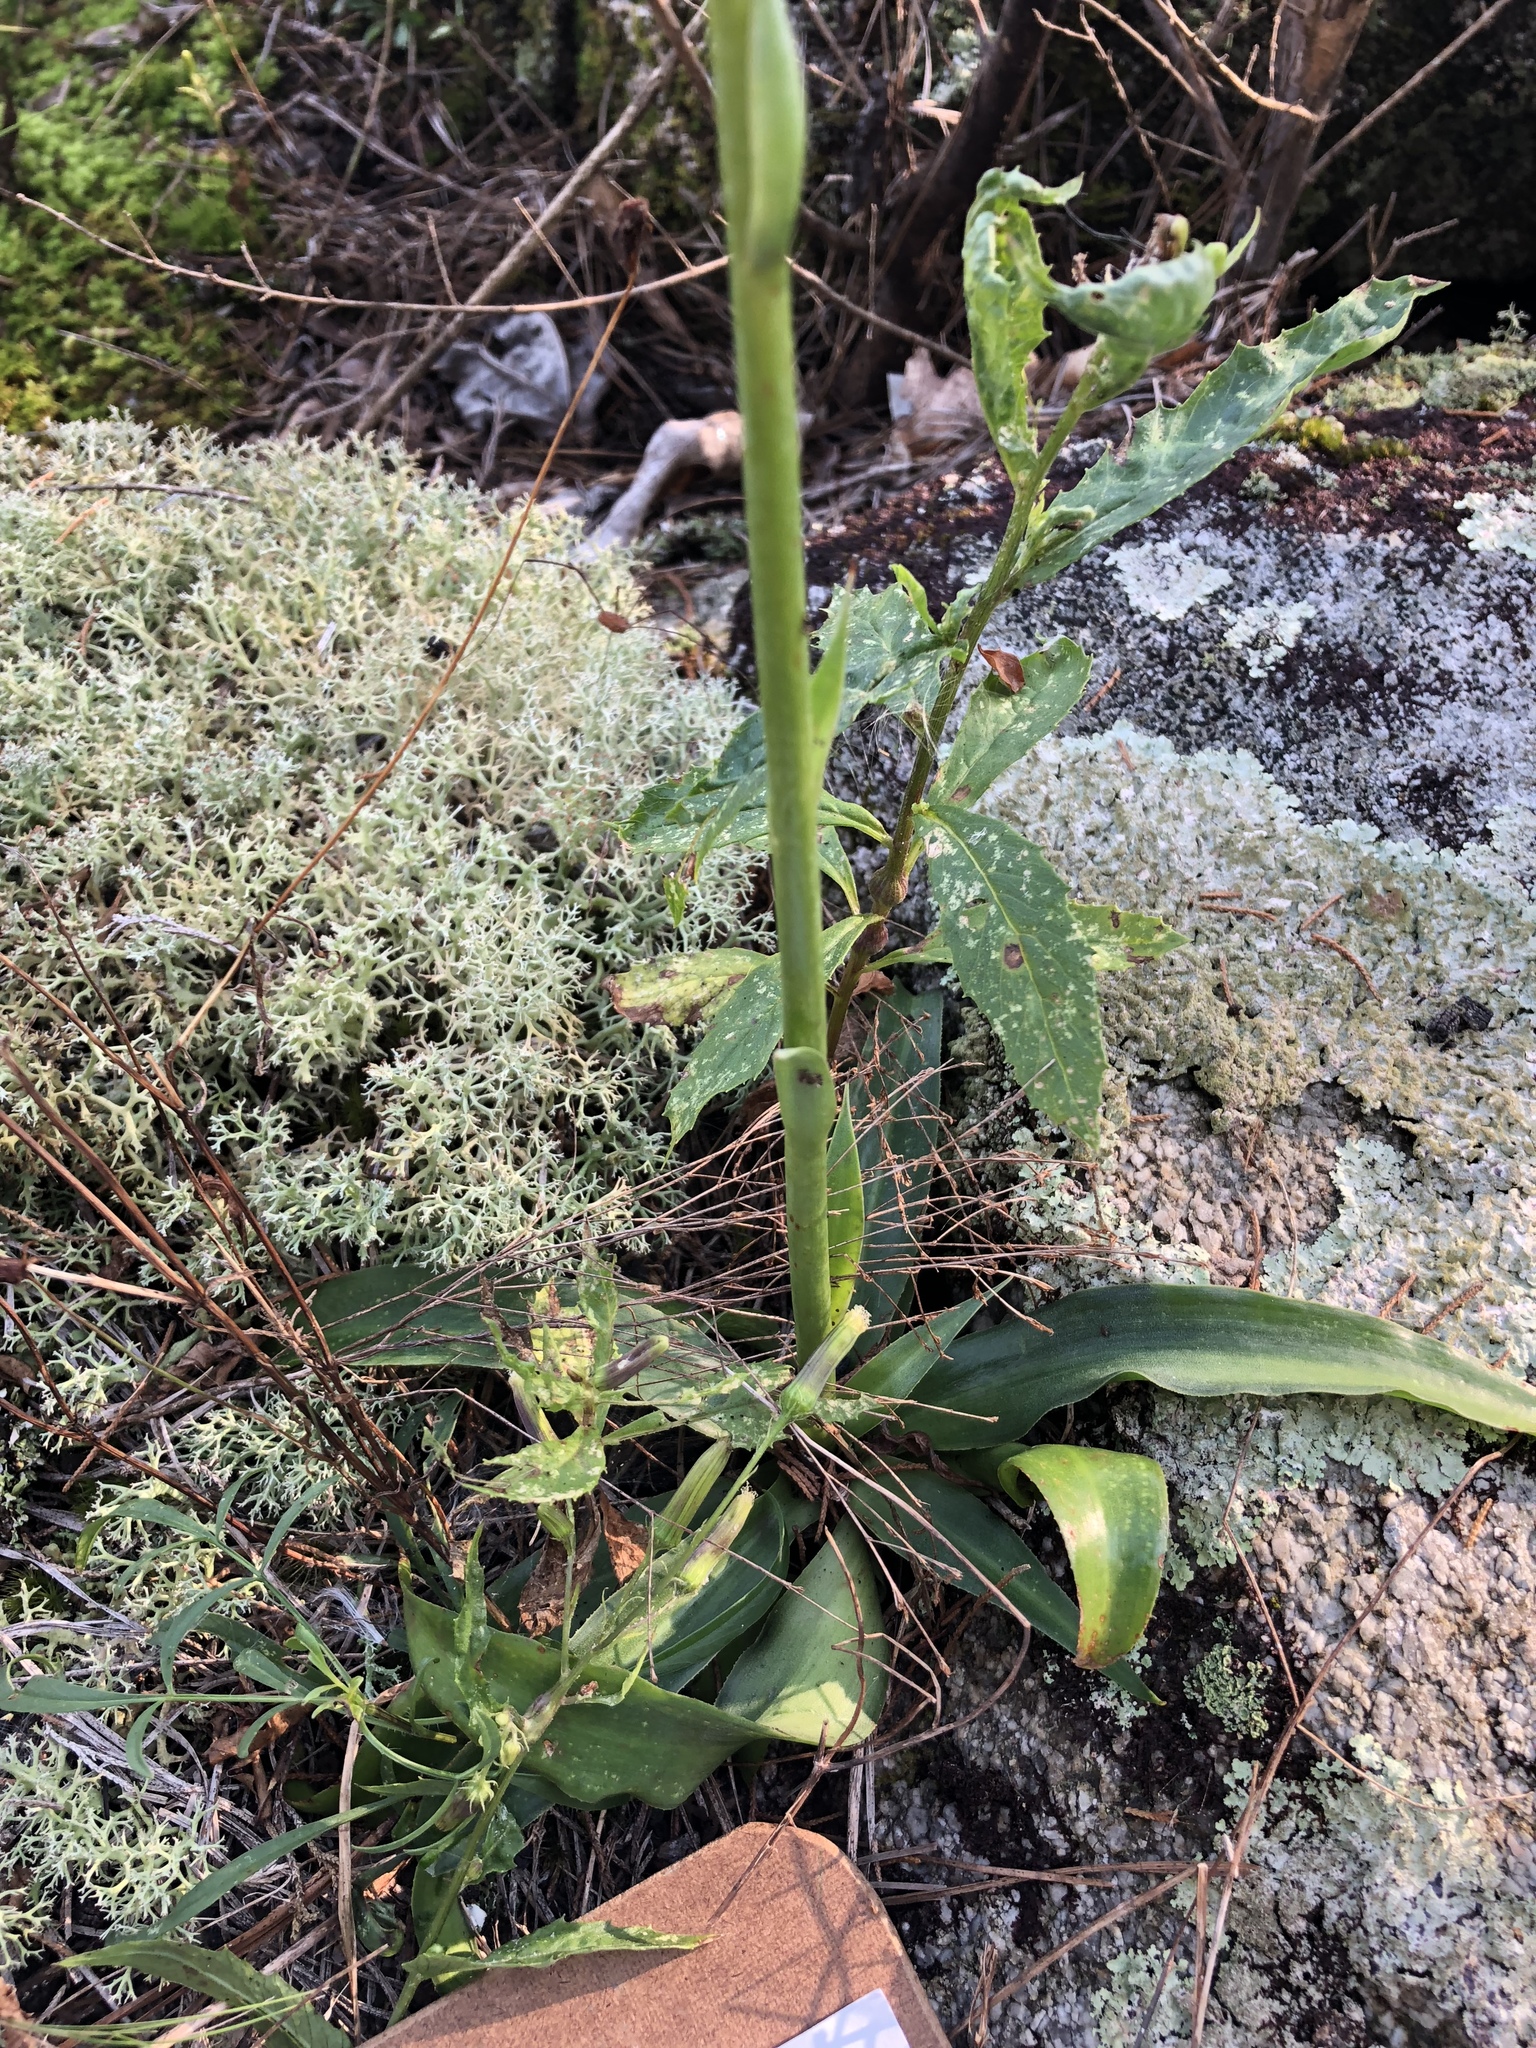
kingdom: Plantae
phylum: Tracheophyta
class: Liliopsida
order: Asparagales
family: Asparagaceae
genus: Agave
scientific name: Agave virginica
